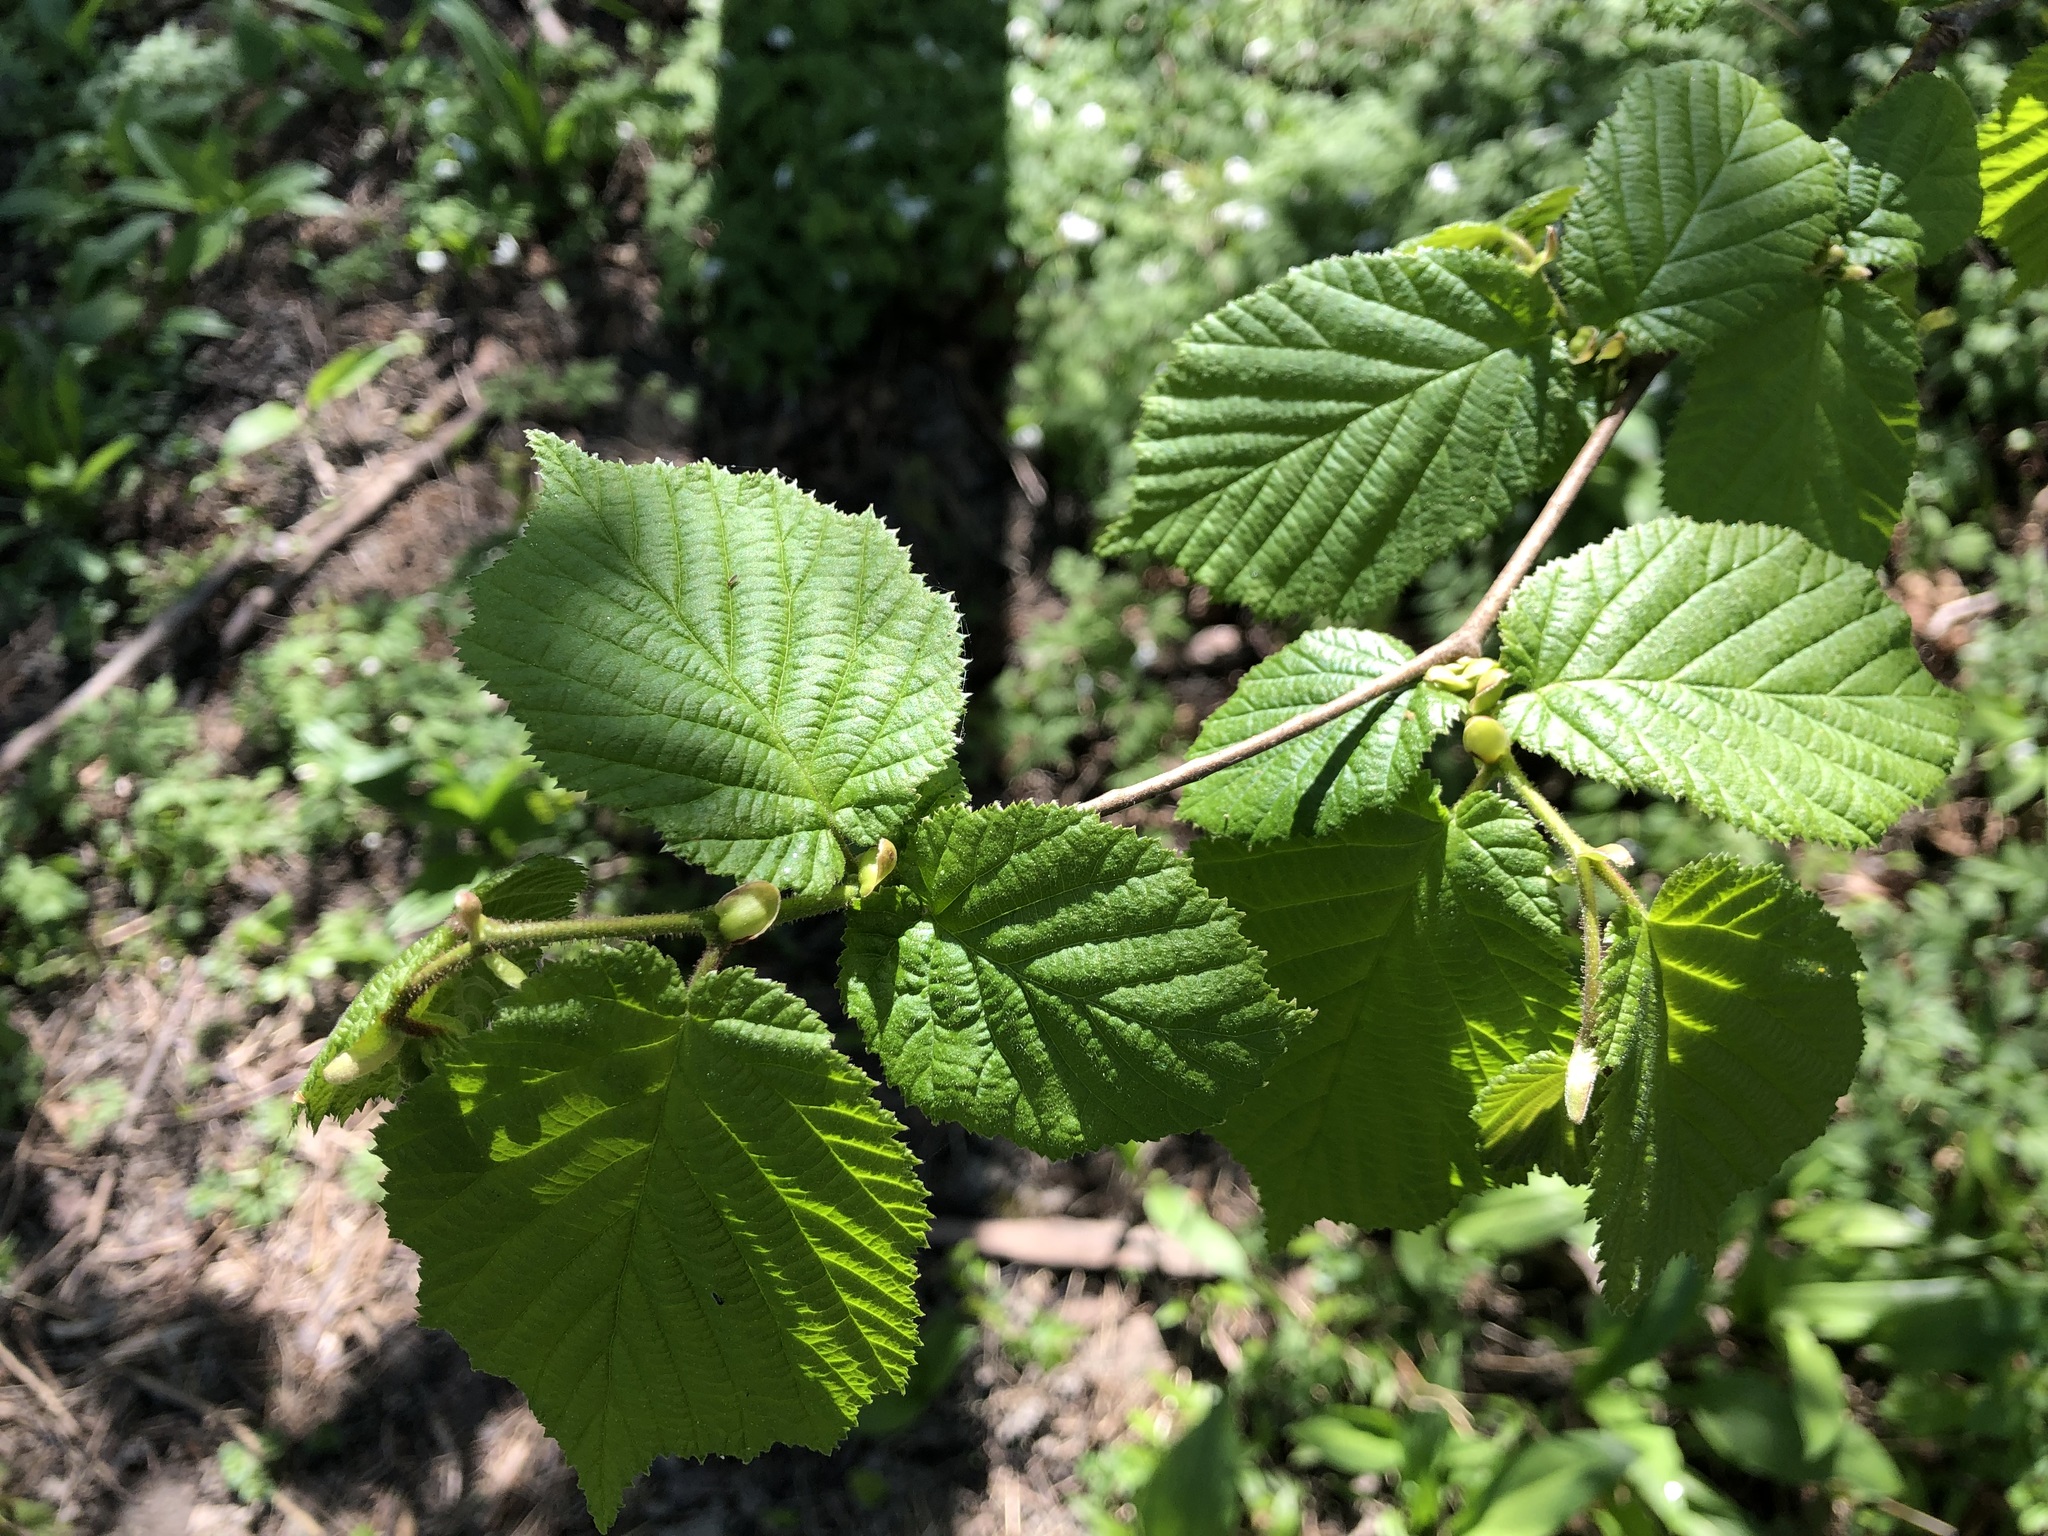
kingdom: Plantae
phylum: Tracheophyta
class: Magnoliopsida
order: Fagales
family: Betulaceae
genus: Corylus
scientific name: Corylus avellana
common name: European hazel
